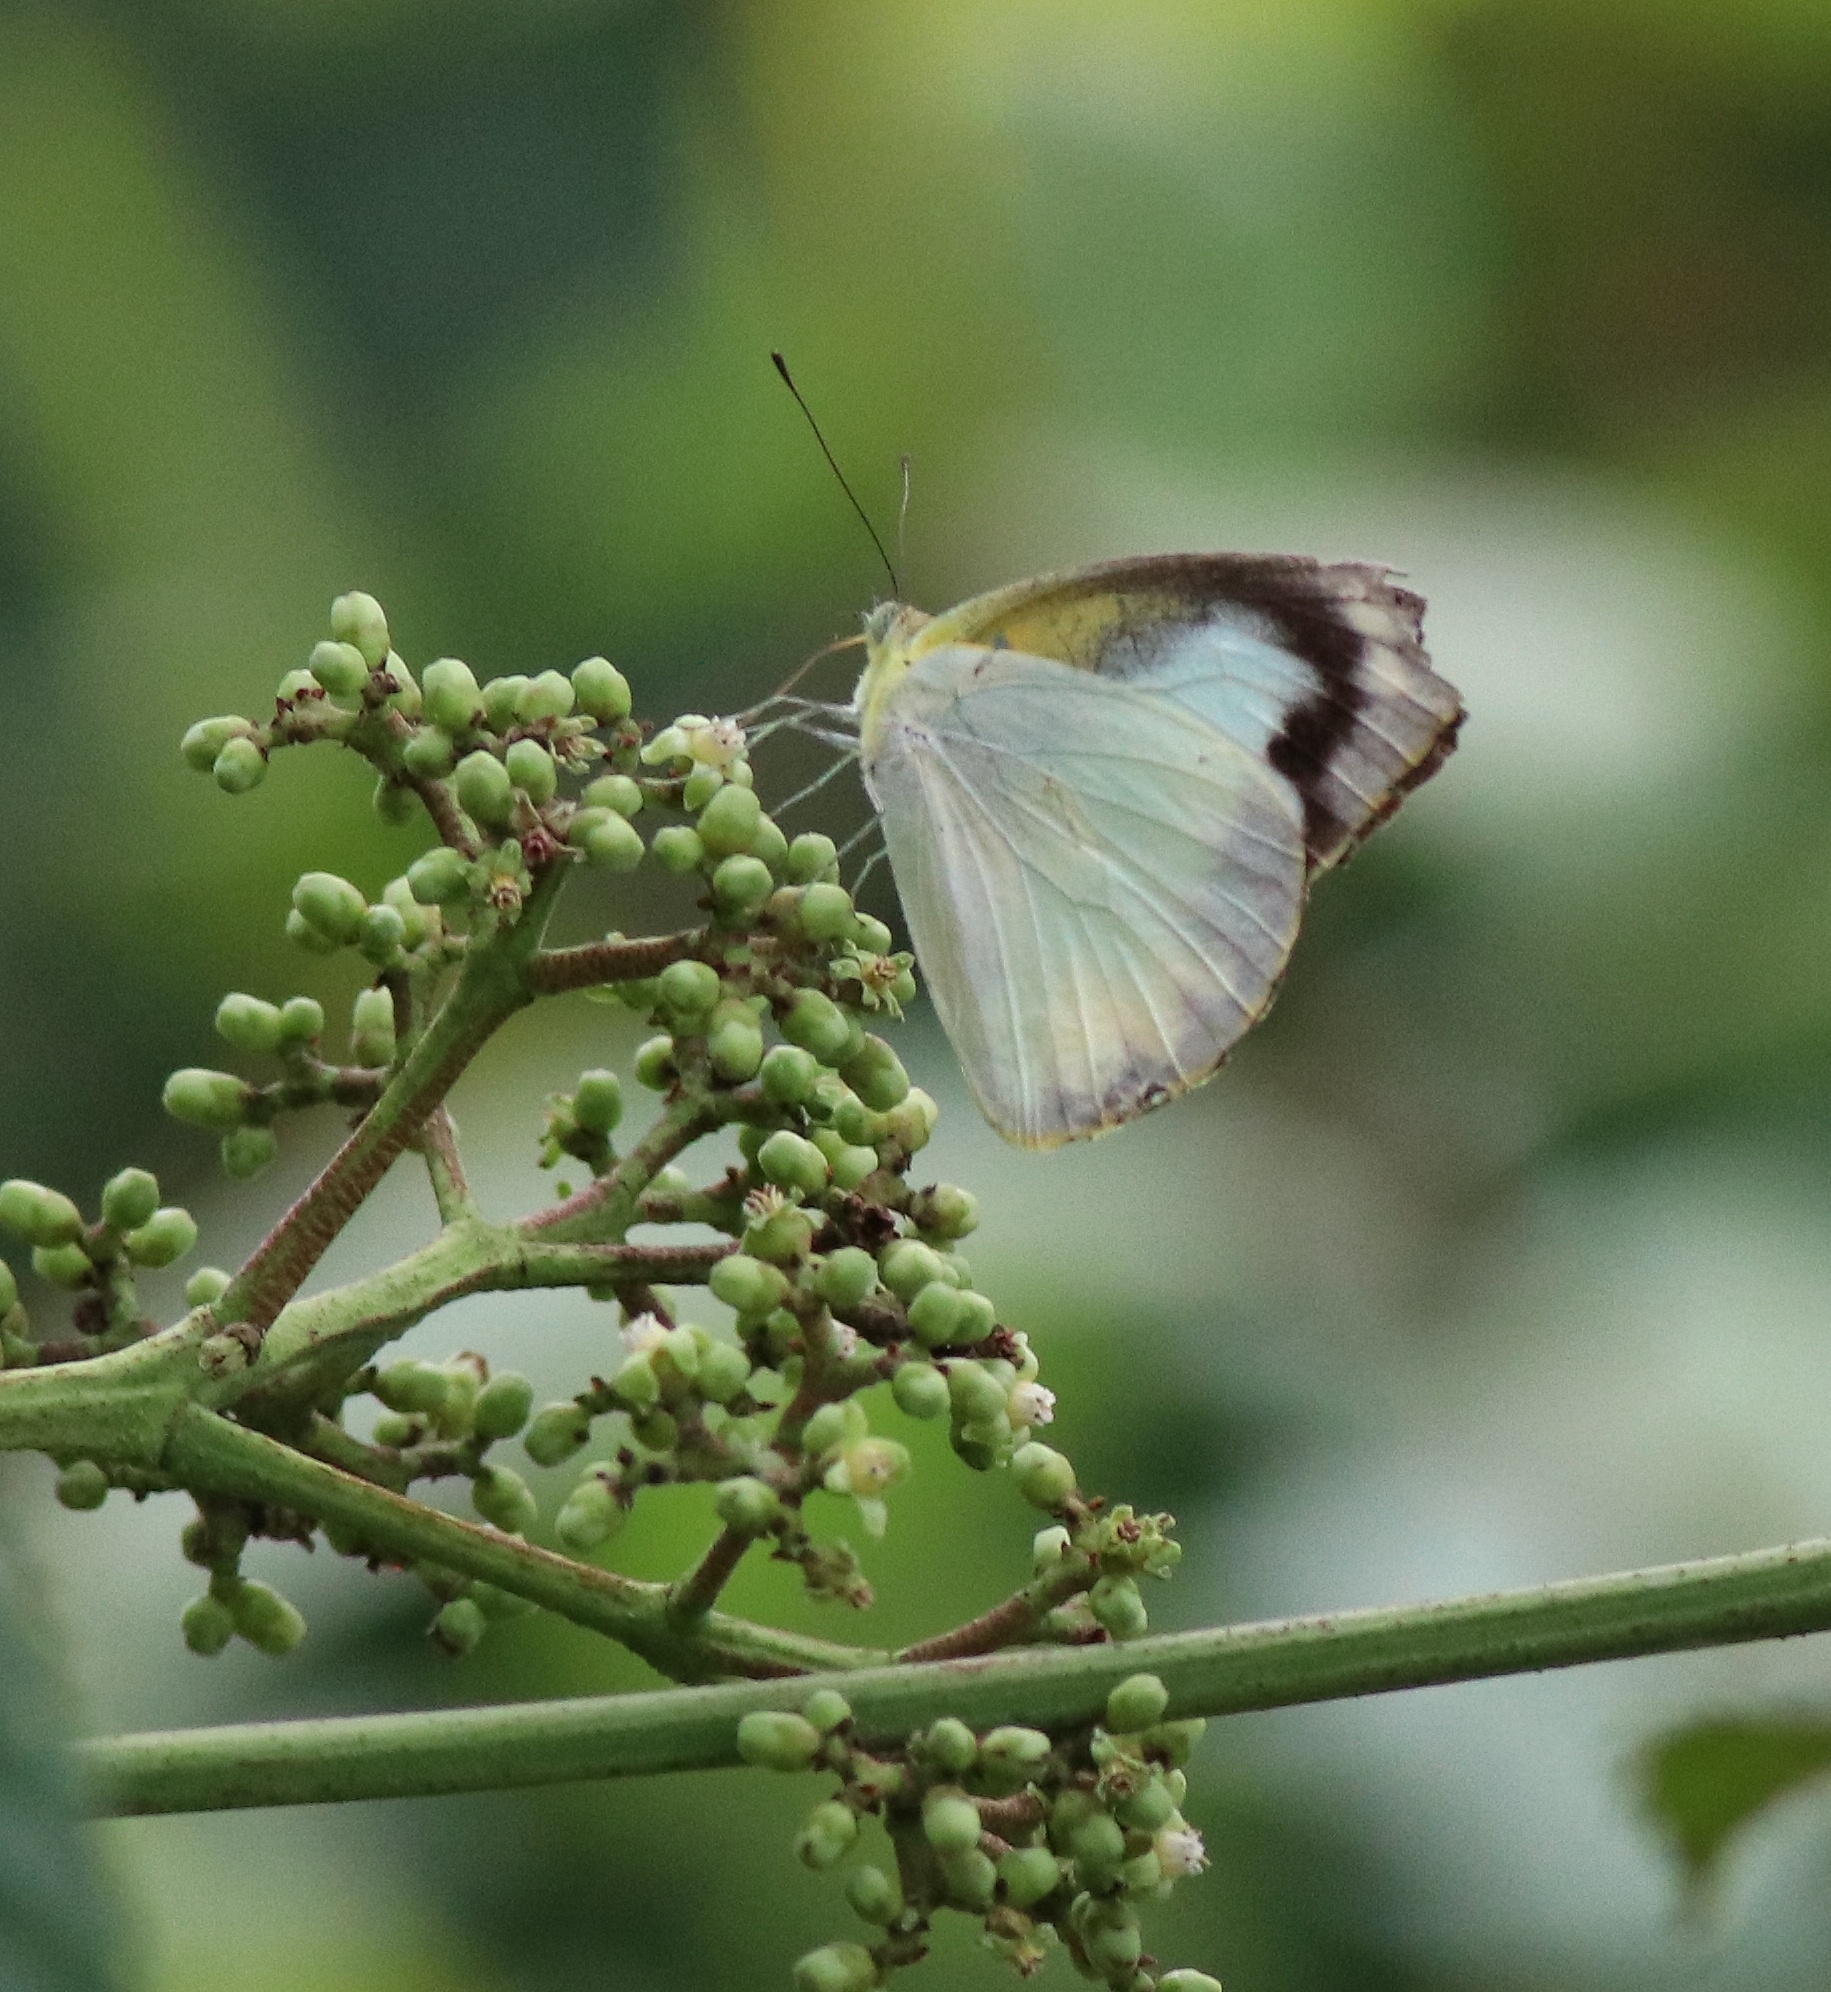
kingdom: Animalia
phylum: Arthropoda
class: Insecta
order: Lepidoptera
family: Pieridae
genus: Appias
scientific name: Appias albina
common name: Common albatross
